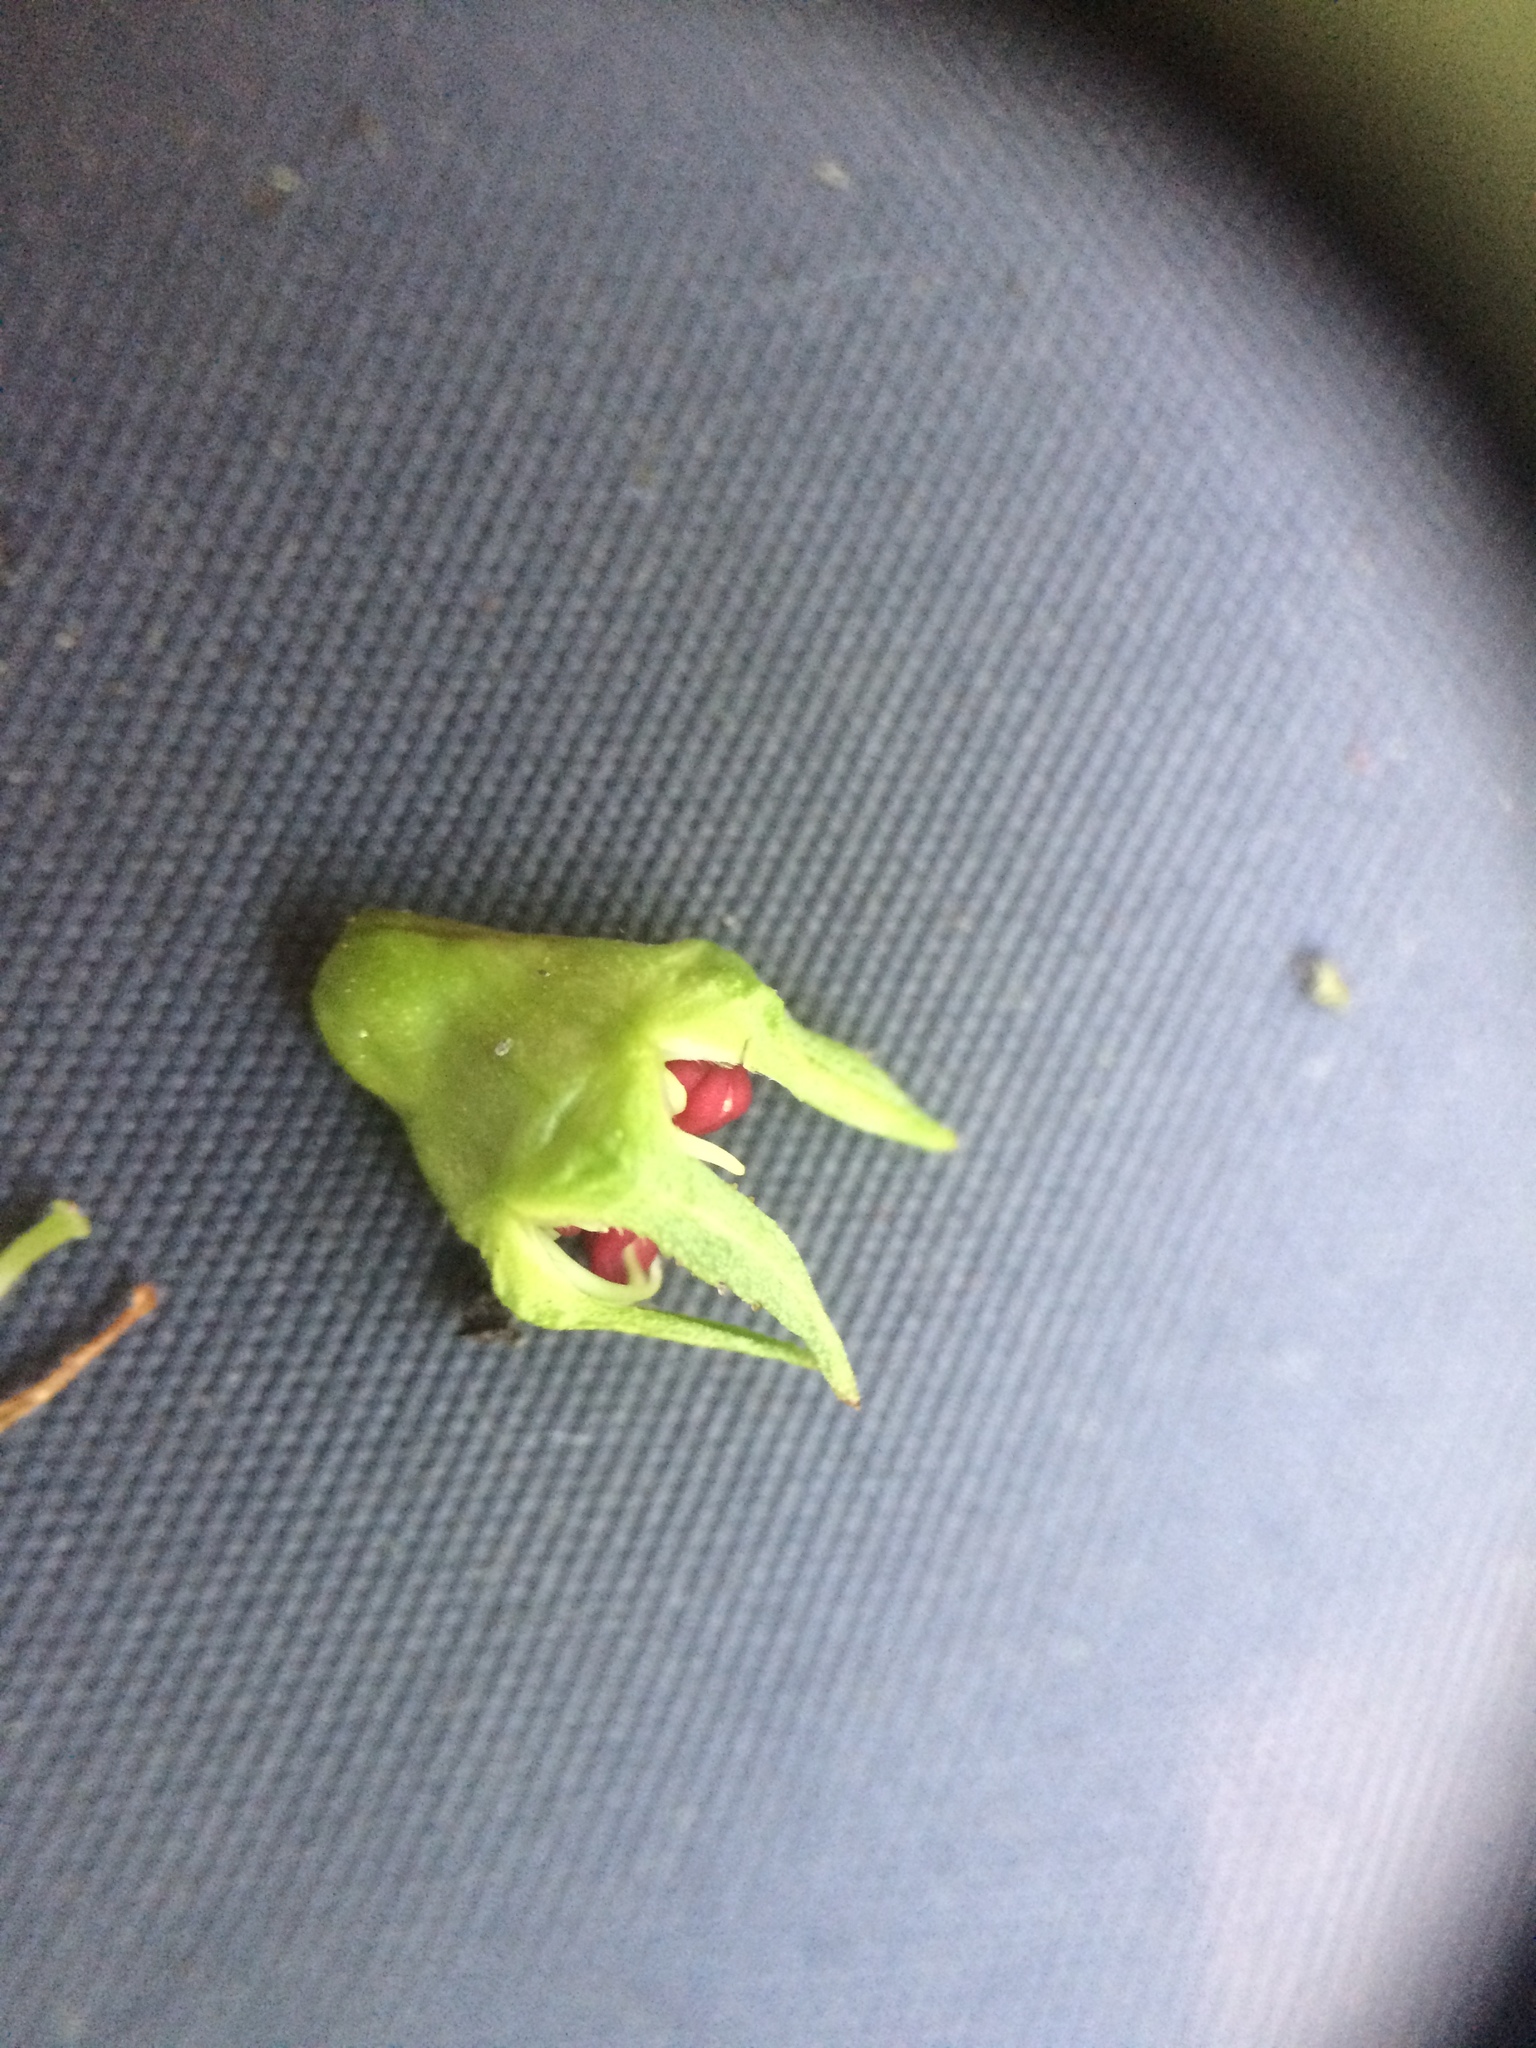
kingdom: Plantae
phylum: Tracheophyta
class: Magnoliopsida
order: Rosales
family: Rosaceae
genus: Crataegus
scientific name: Crataegus suborbiculata
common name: Caughnawaga hawthorn
